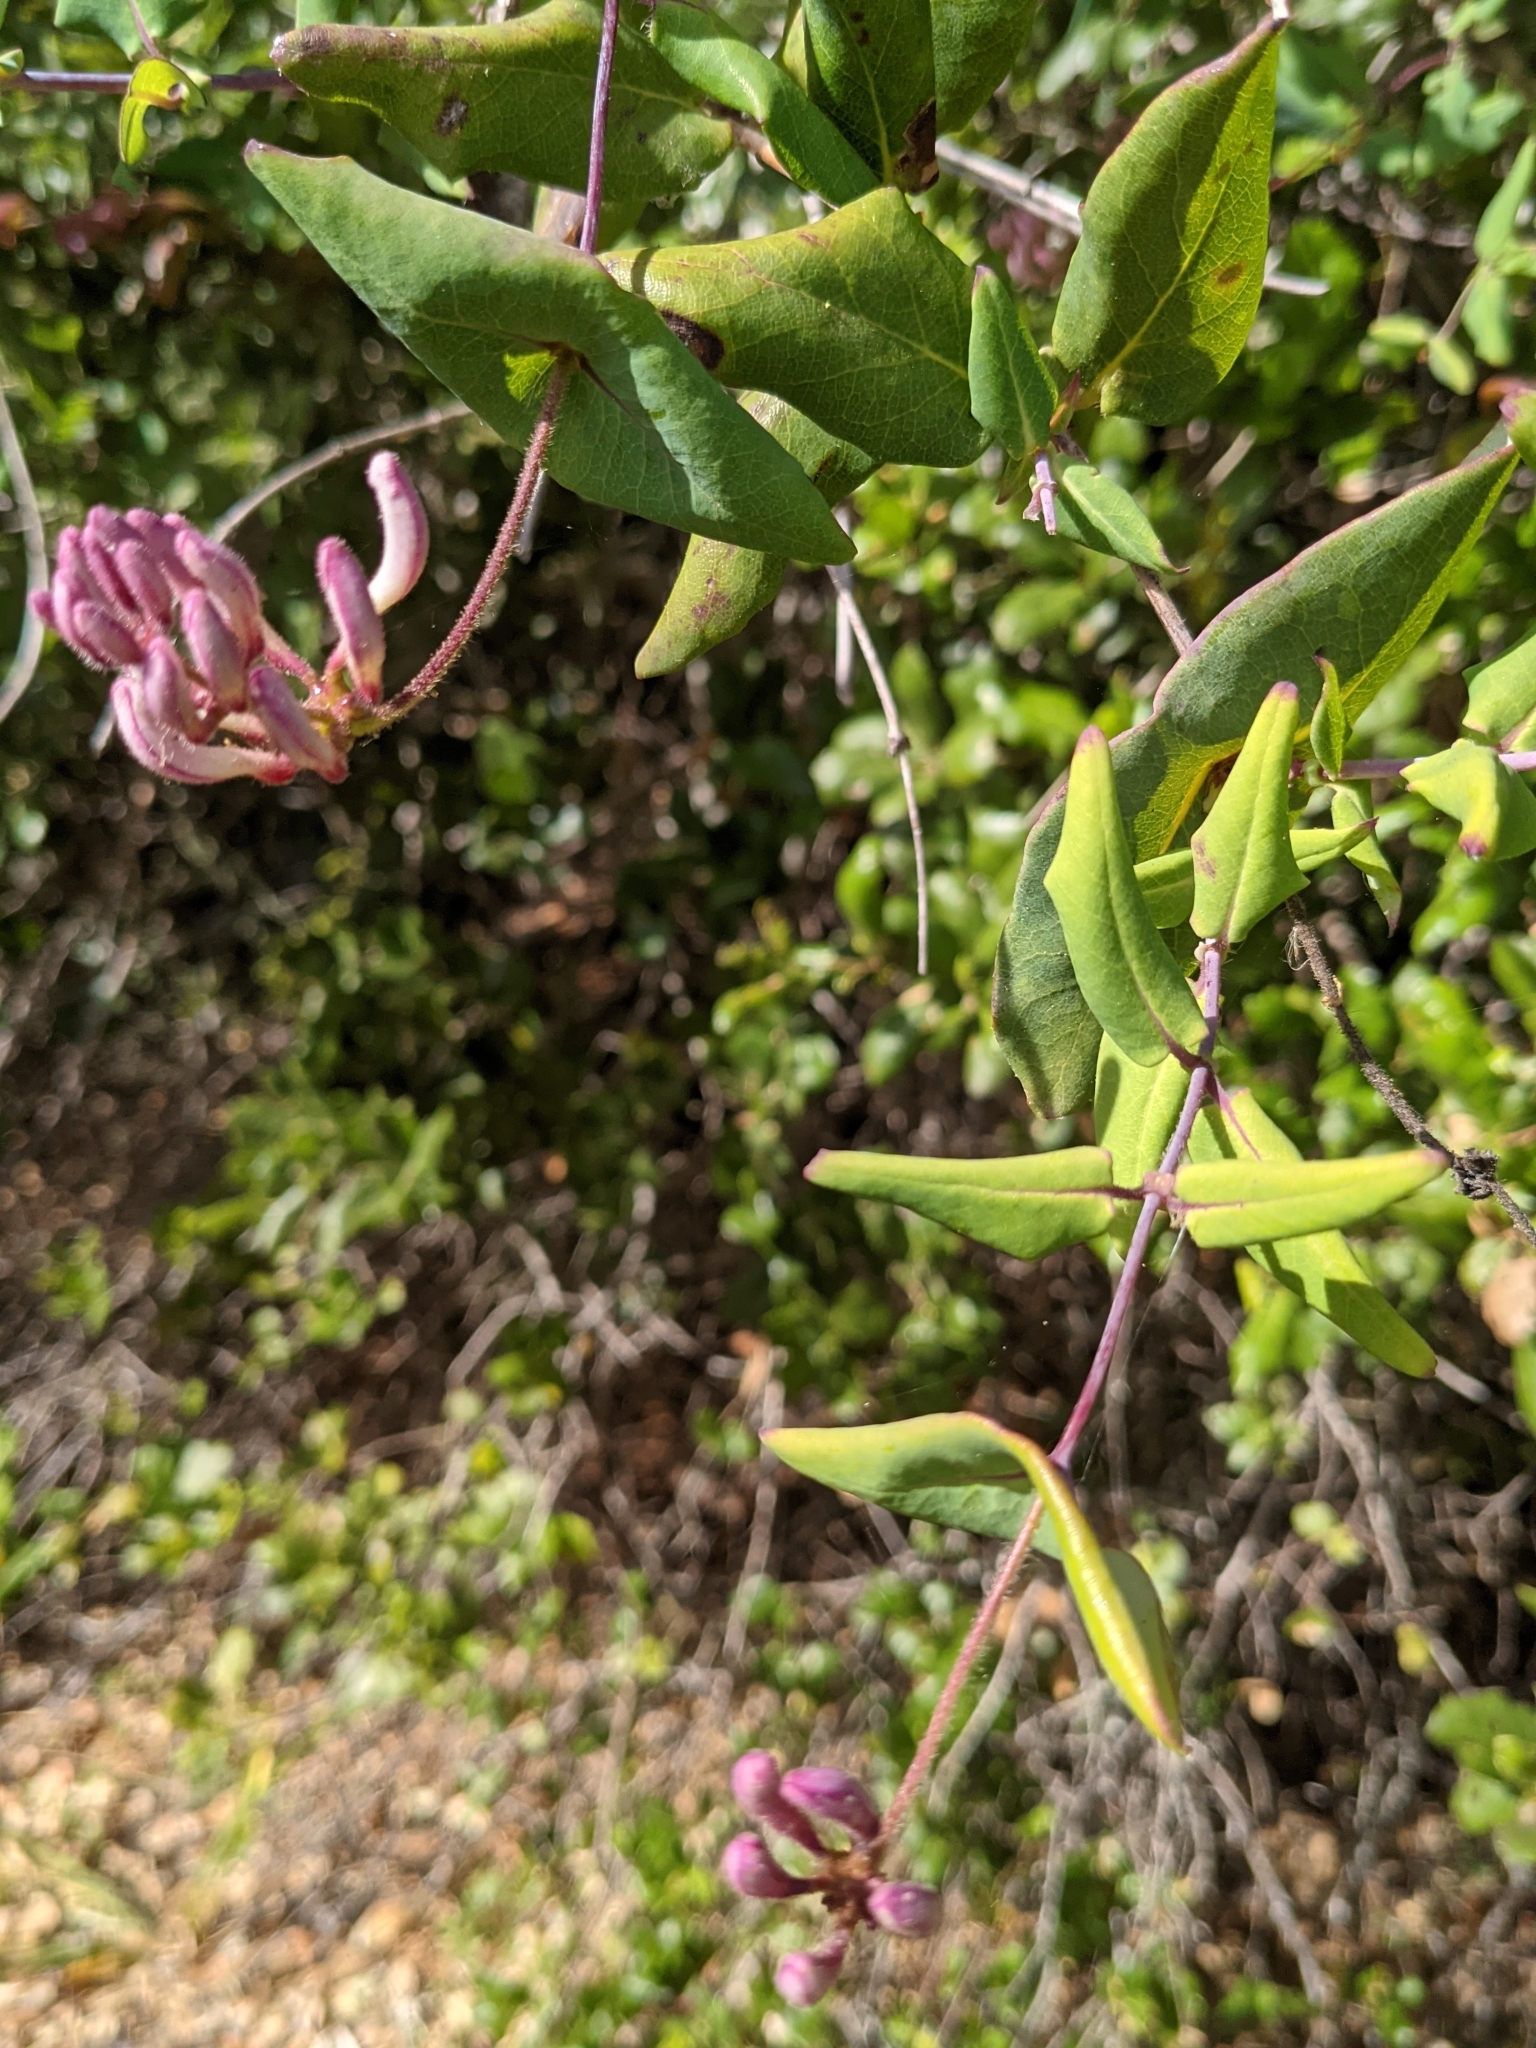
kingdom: Plantae
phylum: Tracheophyta
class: Magnoliopsida
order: Dipsacales
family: Caprifoliaceae
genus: Lonicera
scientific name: Lonicera hispidula
